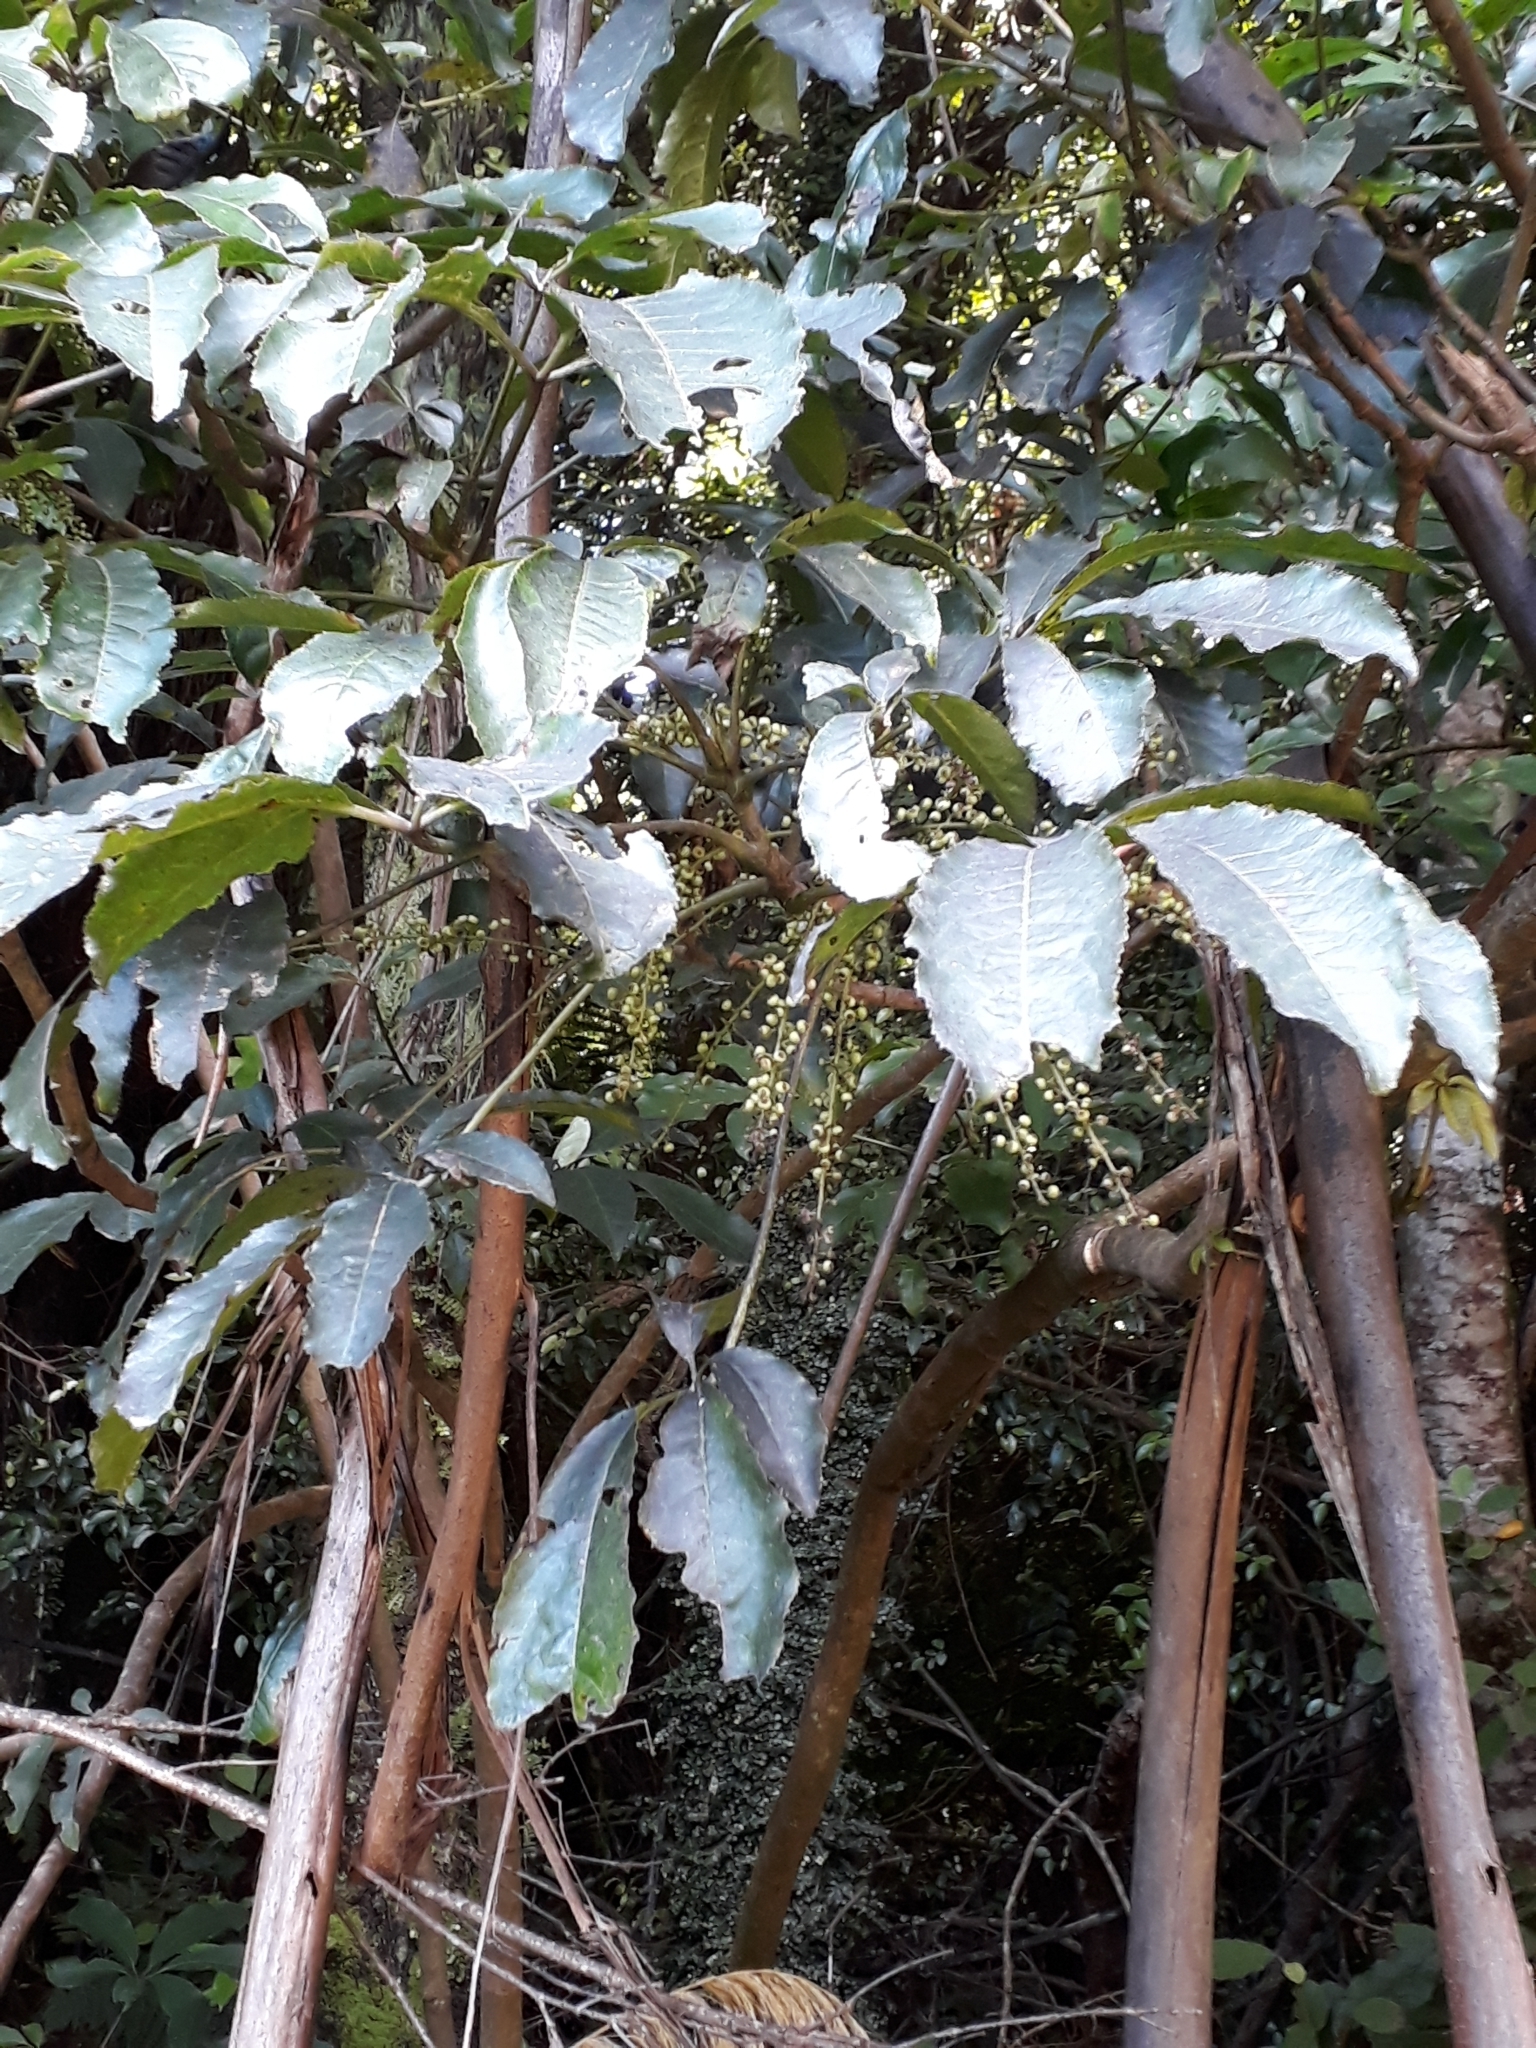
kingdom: Plantae
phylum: Tracheophyta
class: Magnoliopsida
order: Apiales
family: Araliaceae
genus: Schefflera
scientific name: Schefflera digitata
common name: Pate
